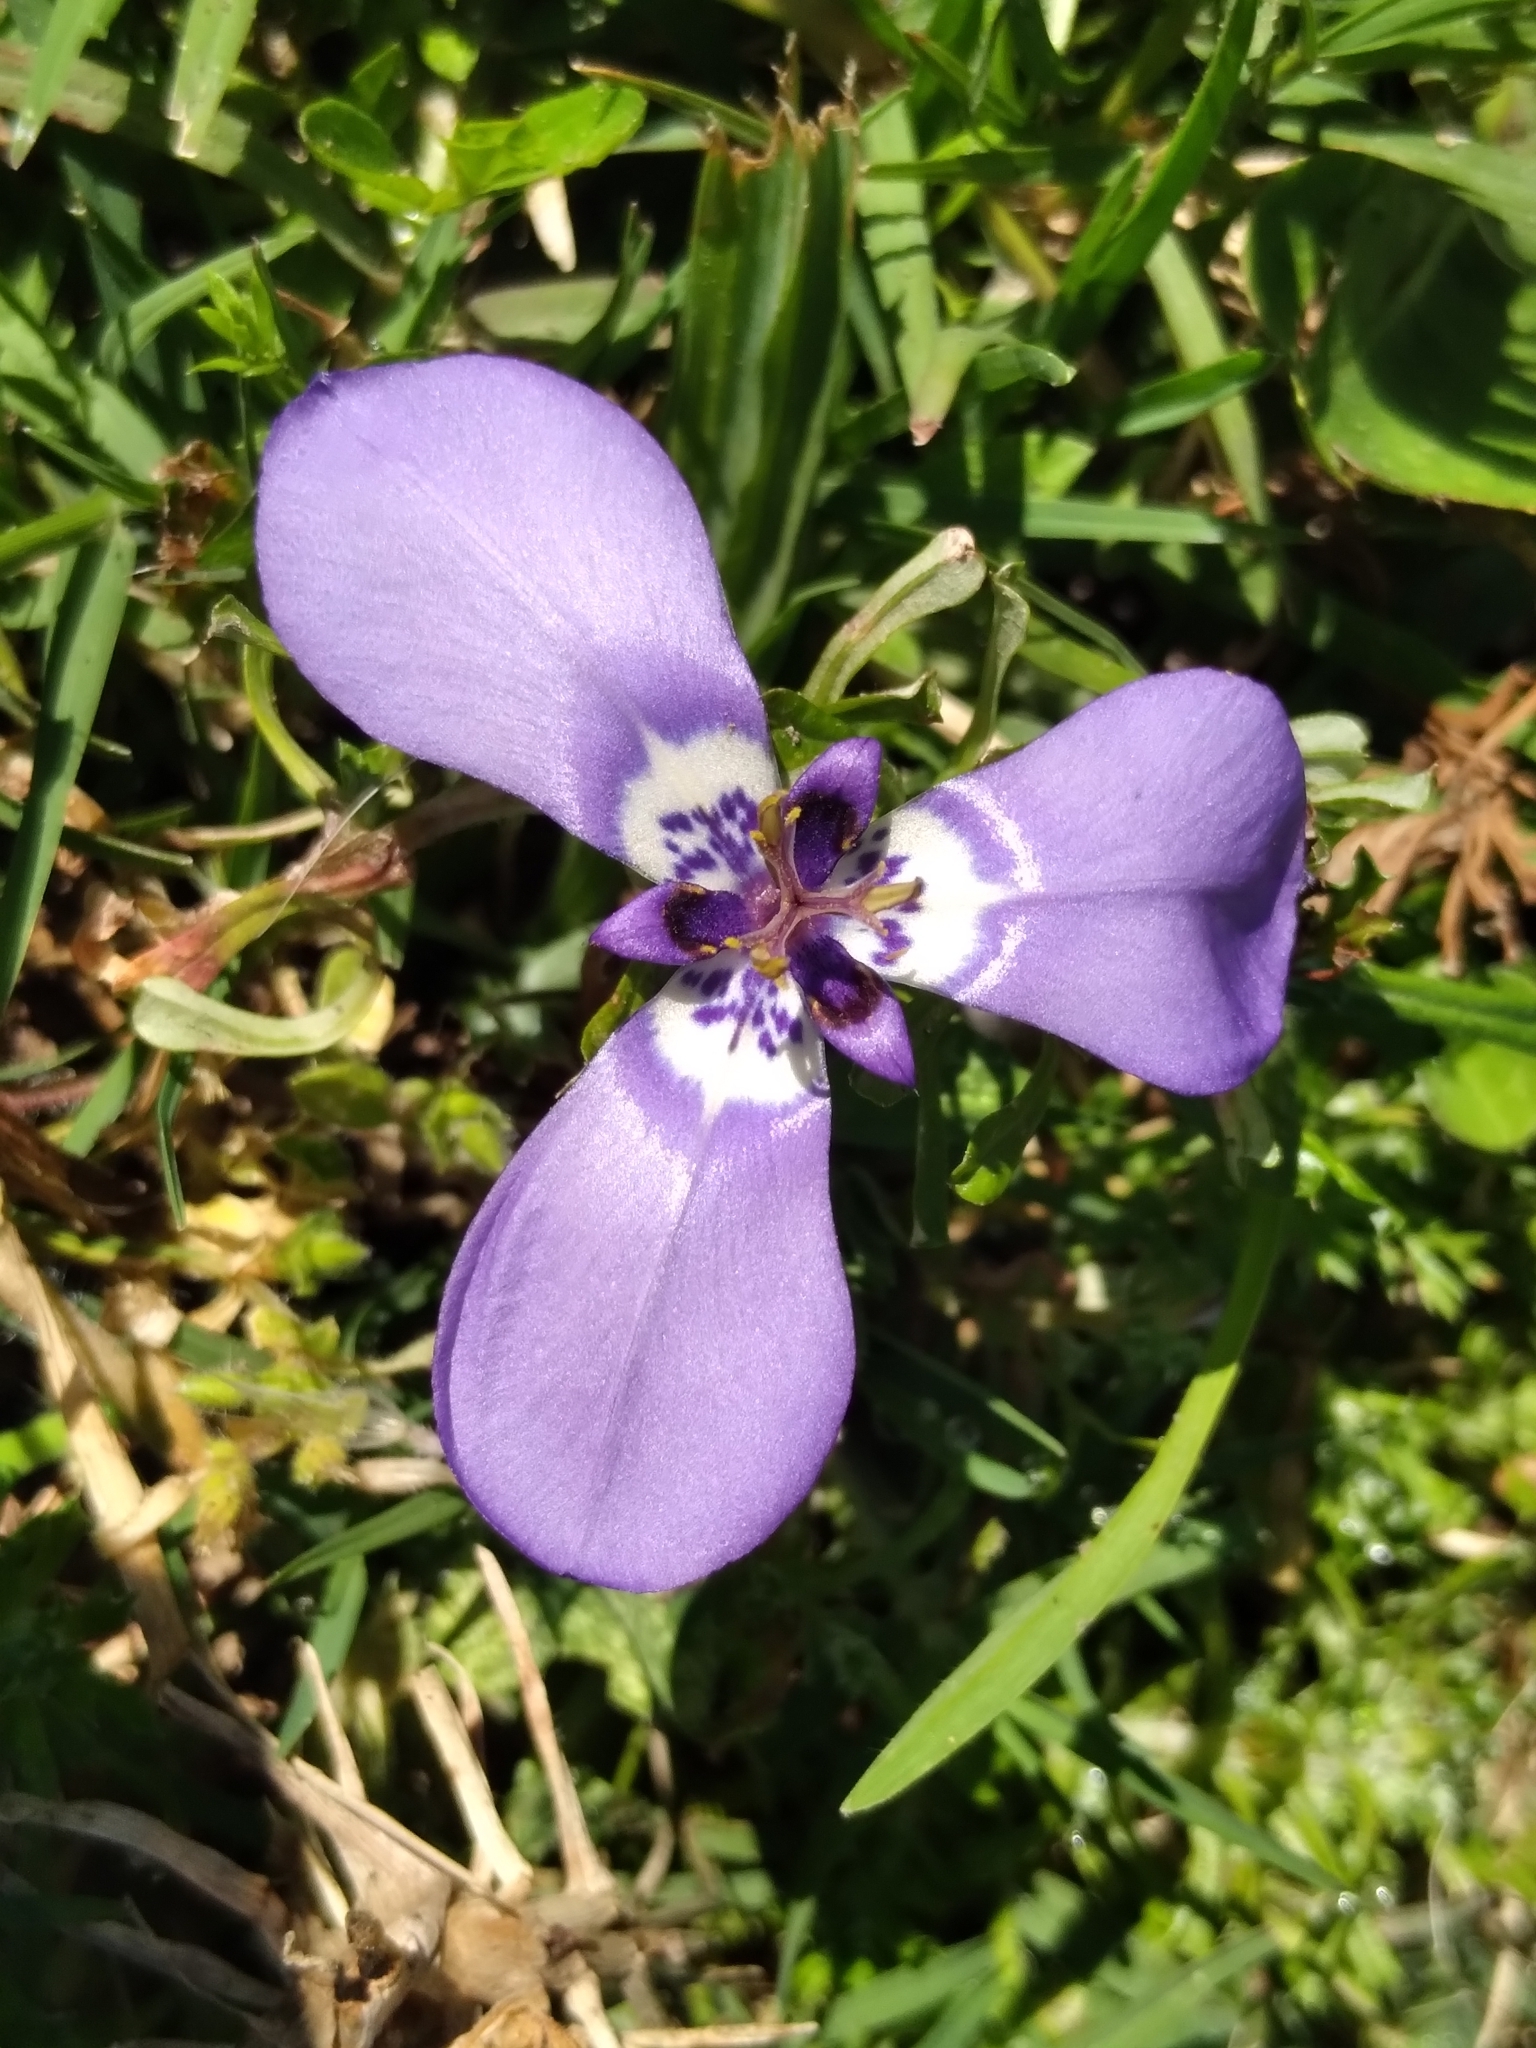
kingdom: Plantae
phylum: Tracheophyta
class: Liliopsida
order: Asparagales
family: Iridaceae
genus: Herbertia
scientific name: Herbertia lahue
